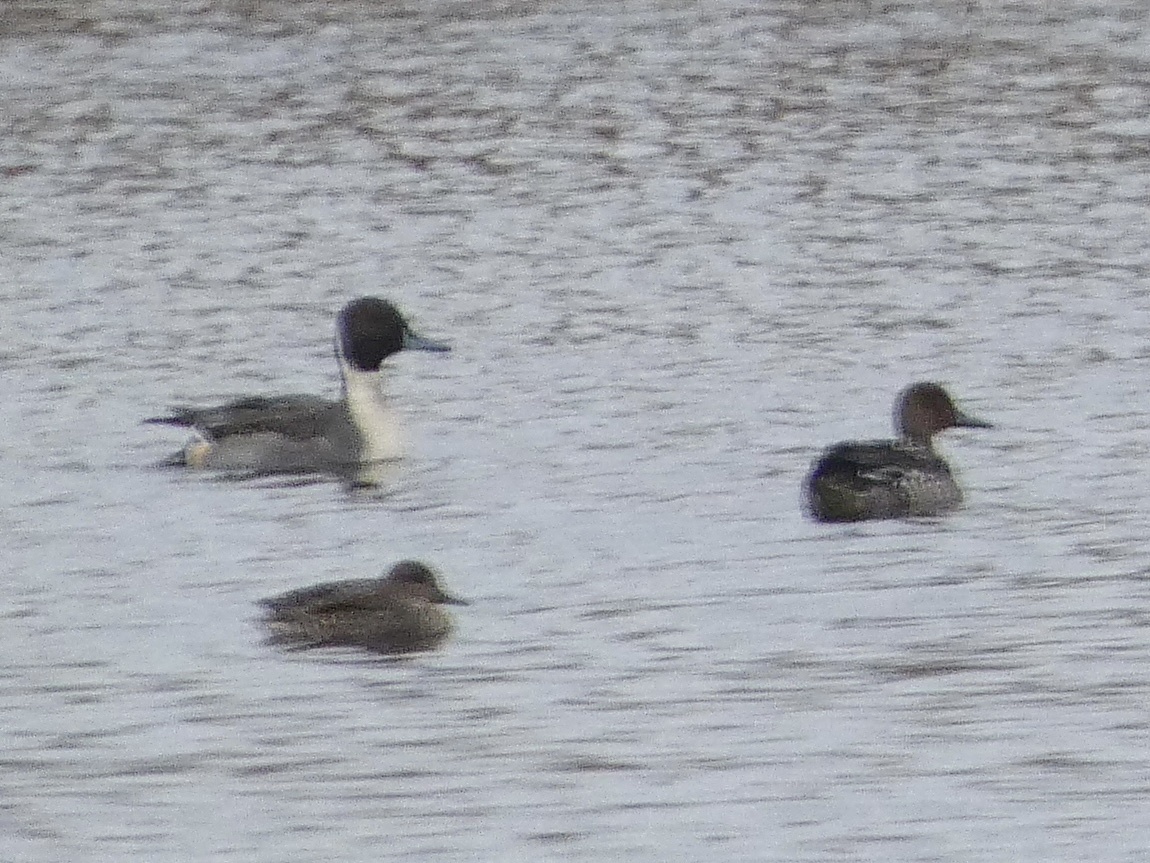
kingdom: Animalia
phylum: Chordata
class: Aves
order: Anseriformes
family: Anatidae
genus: Anas
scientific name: Anas acuta
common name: Northern pintail
